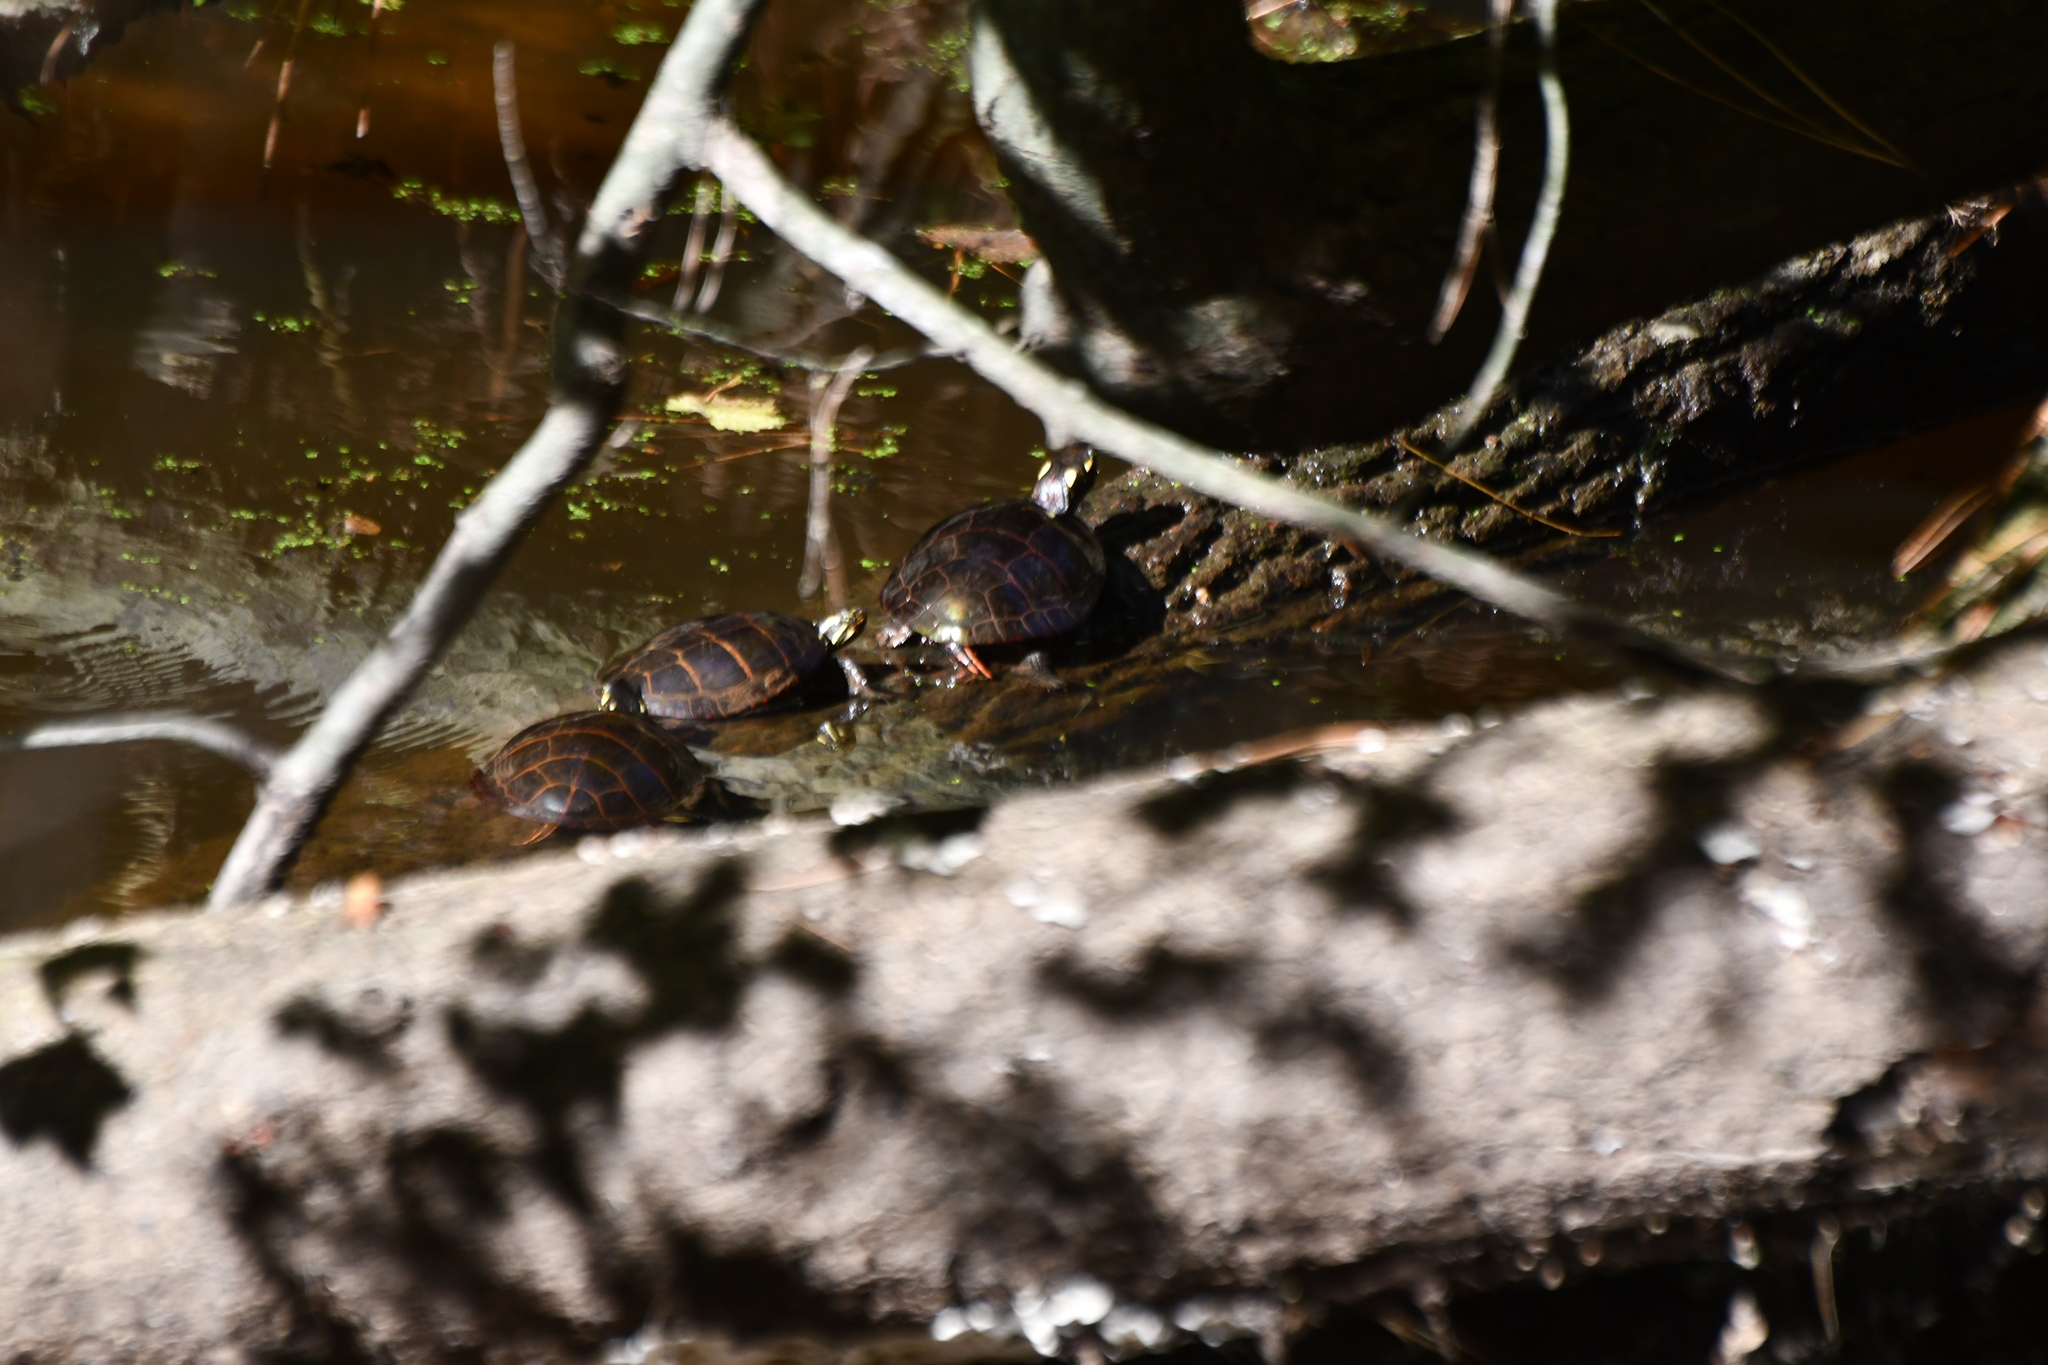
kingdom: Animalia
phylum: Chordata
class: Testudines
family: Emydidae
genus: Chrysemys
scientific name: Chrysemys picta
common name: Painted turtle
